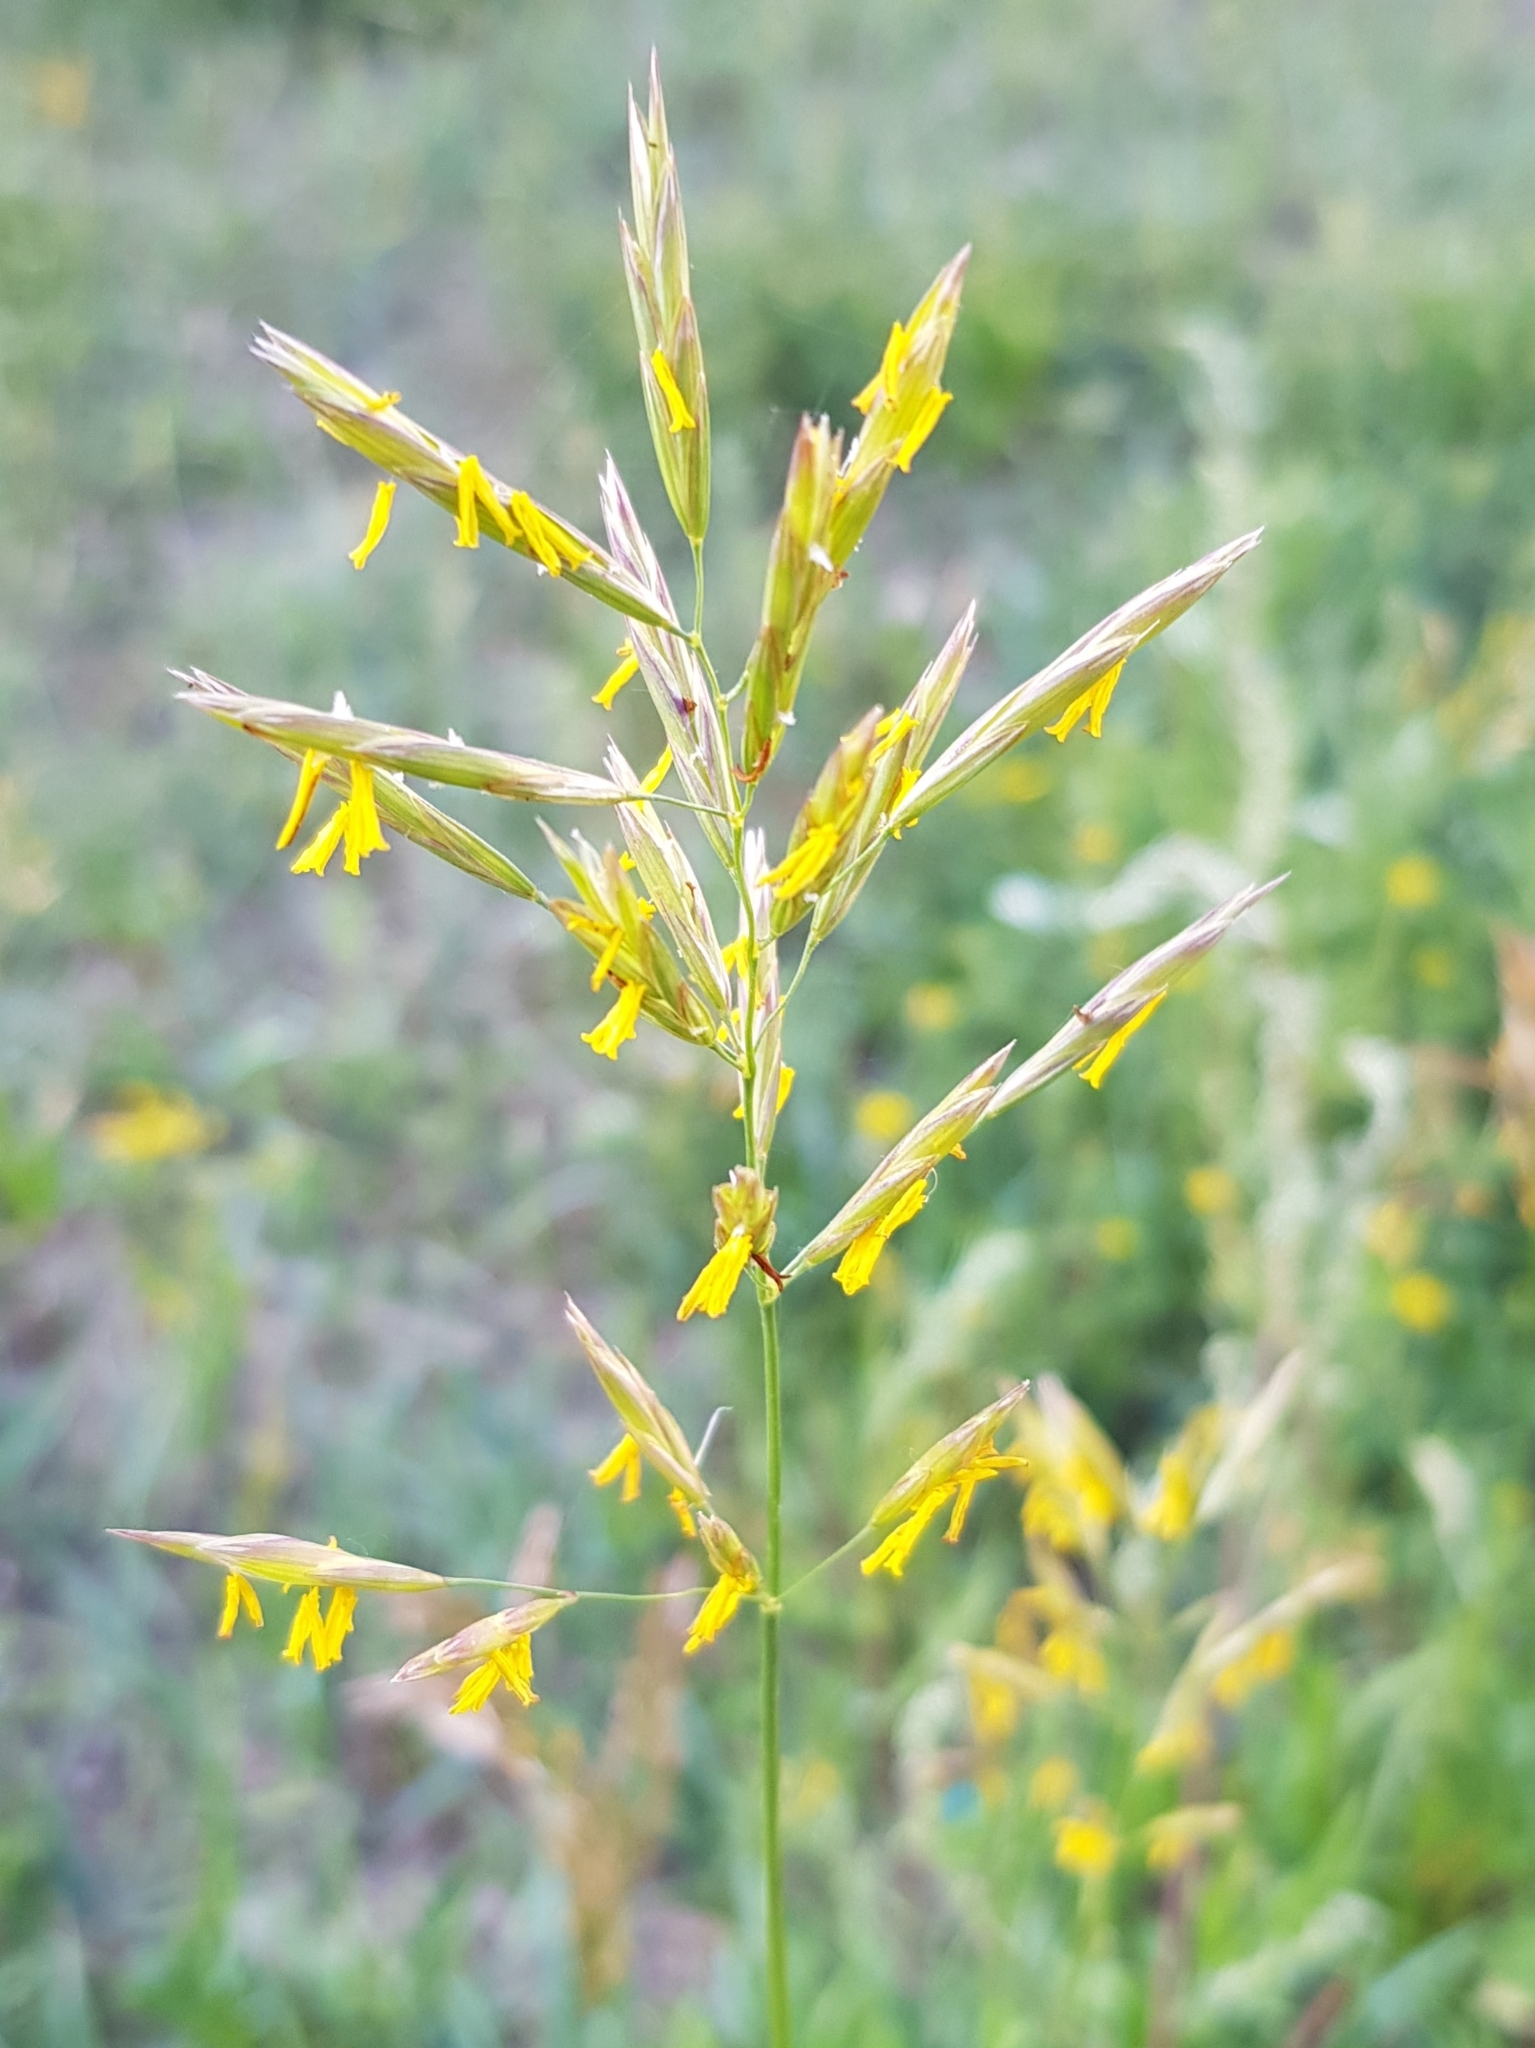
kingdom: Plantae
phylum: Tracheophyta
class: Liliopsida
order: Poales
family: Poaceae
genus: Bromus
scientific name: Bromus inermis
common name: Smooth brome
